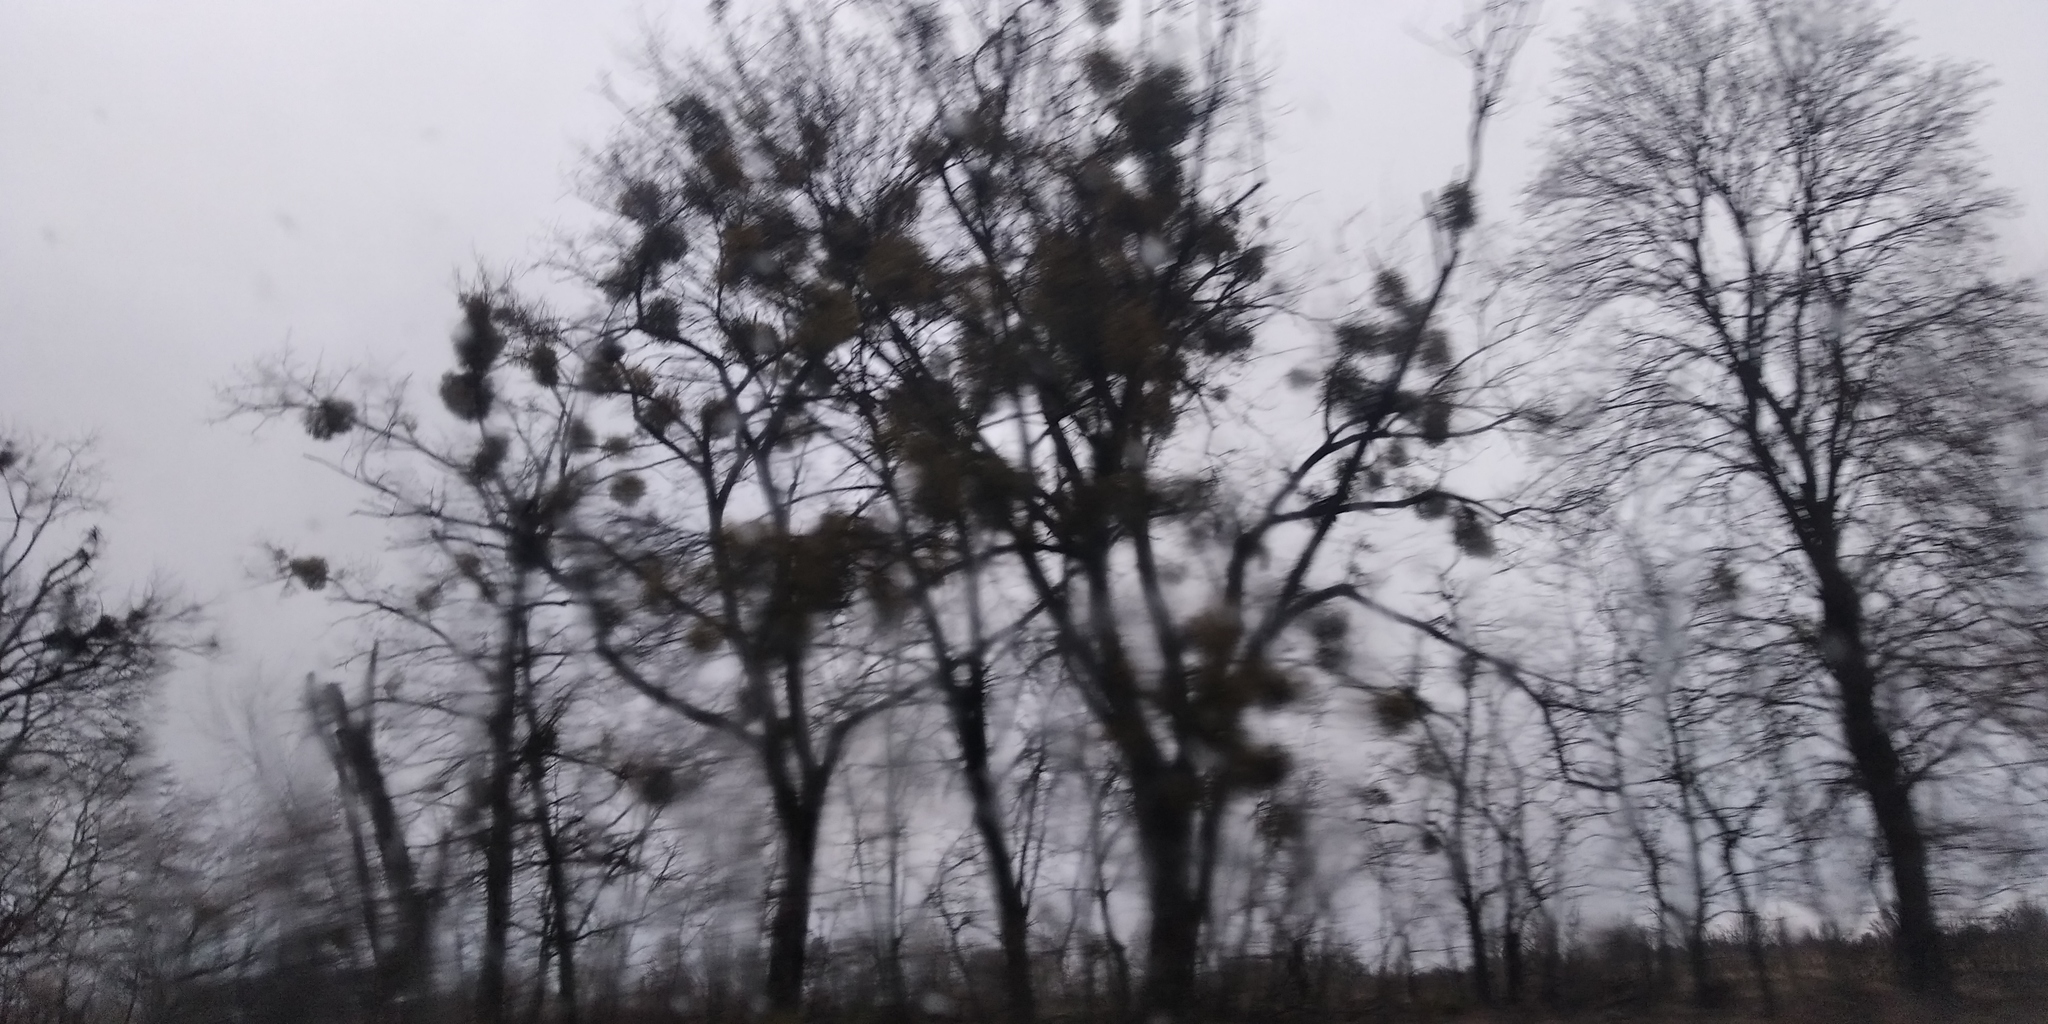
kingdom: Plantae
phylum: Tracheophyta
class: Magnoliopsida
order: Santalales
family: Viscaceae
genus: Viscum
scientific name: Viscum album
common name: Mistletoe
